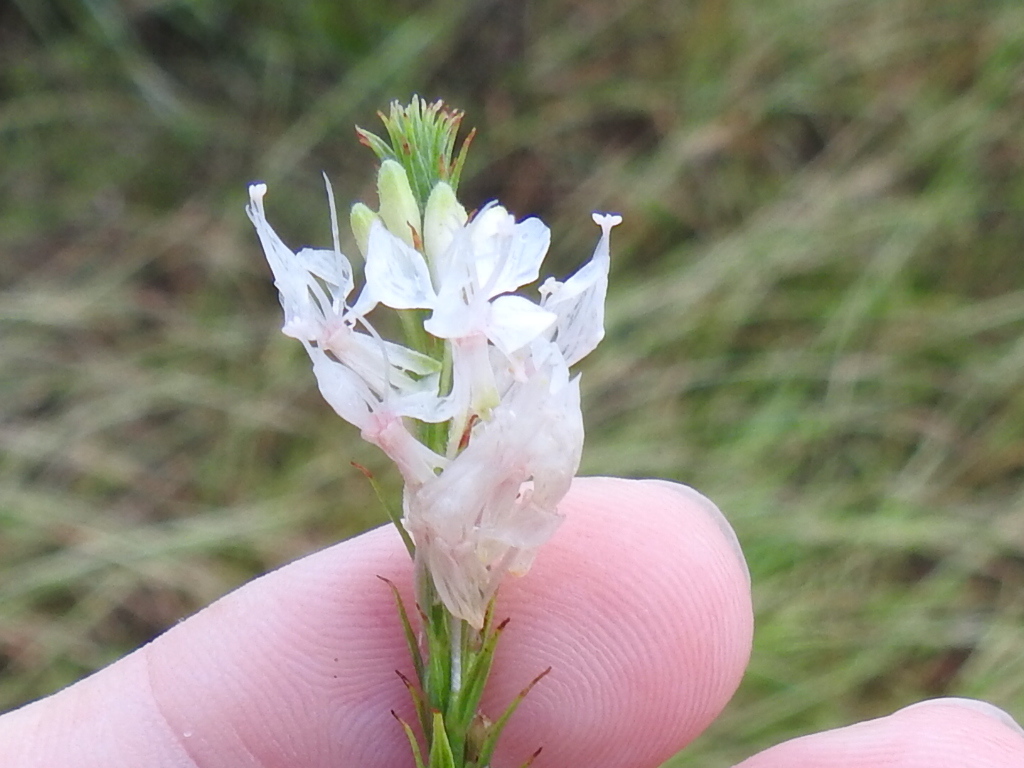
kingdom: Plantae
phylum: Tracheophyta
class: Magnoliopsida
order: Myrtales
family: Onagraceae
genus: Oenothera
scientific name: Oenothera glaucifolia
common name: False gaura
